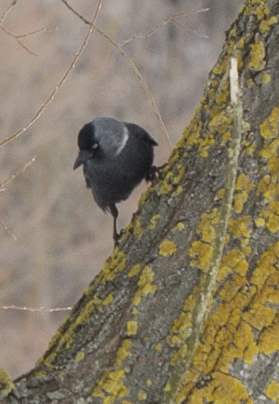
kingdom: Animalia
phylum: Chordata
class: Aves
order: Passeriformes
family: Corvidae
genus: Coloeus
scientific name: Coloeus monedula
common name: Western jackdaw
